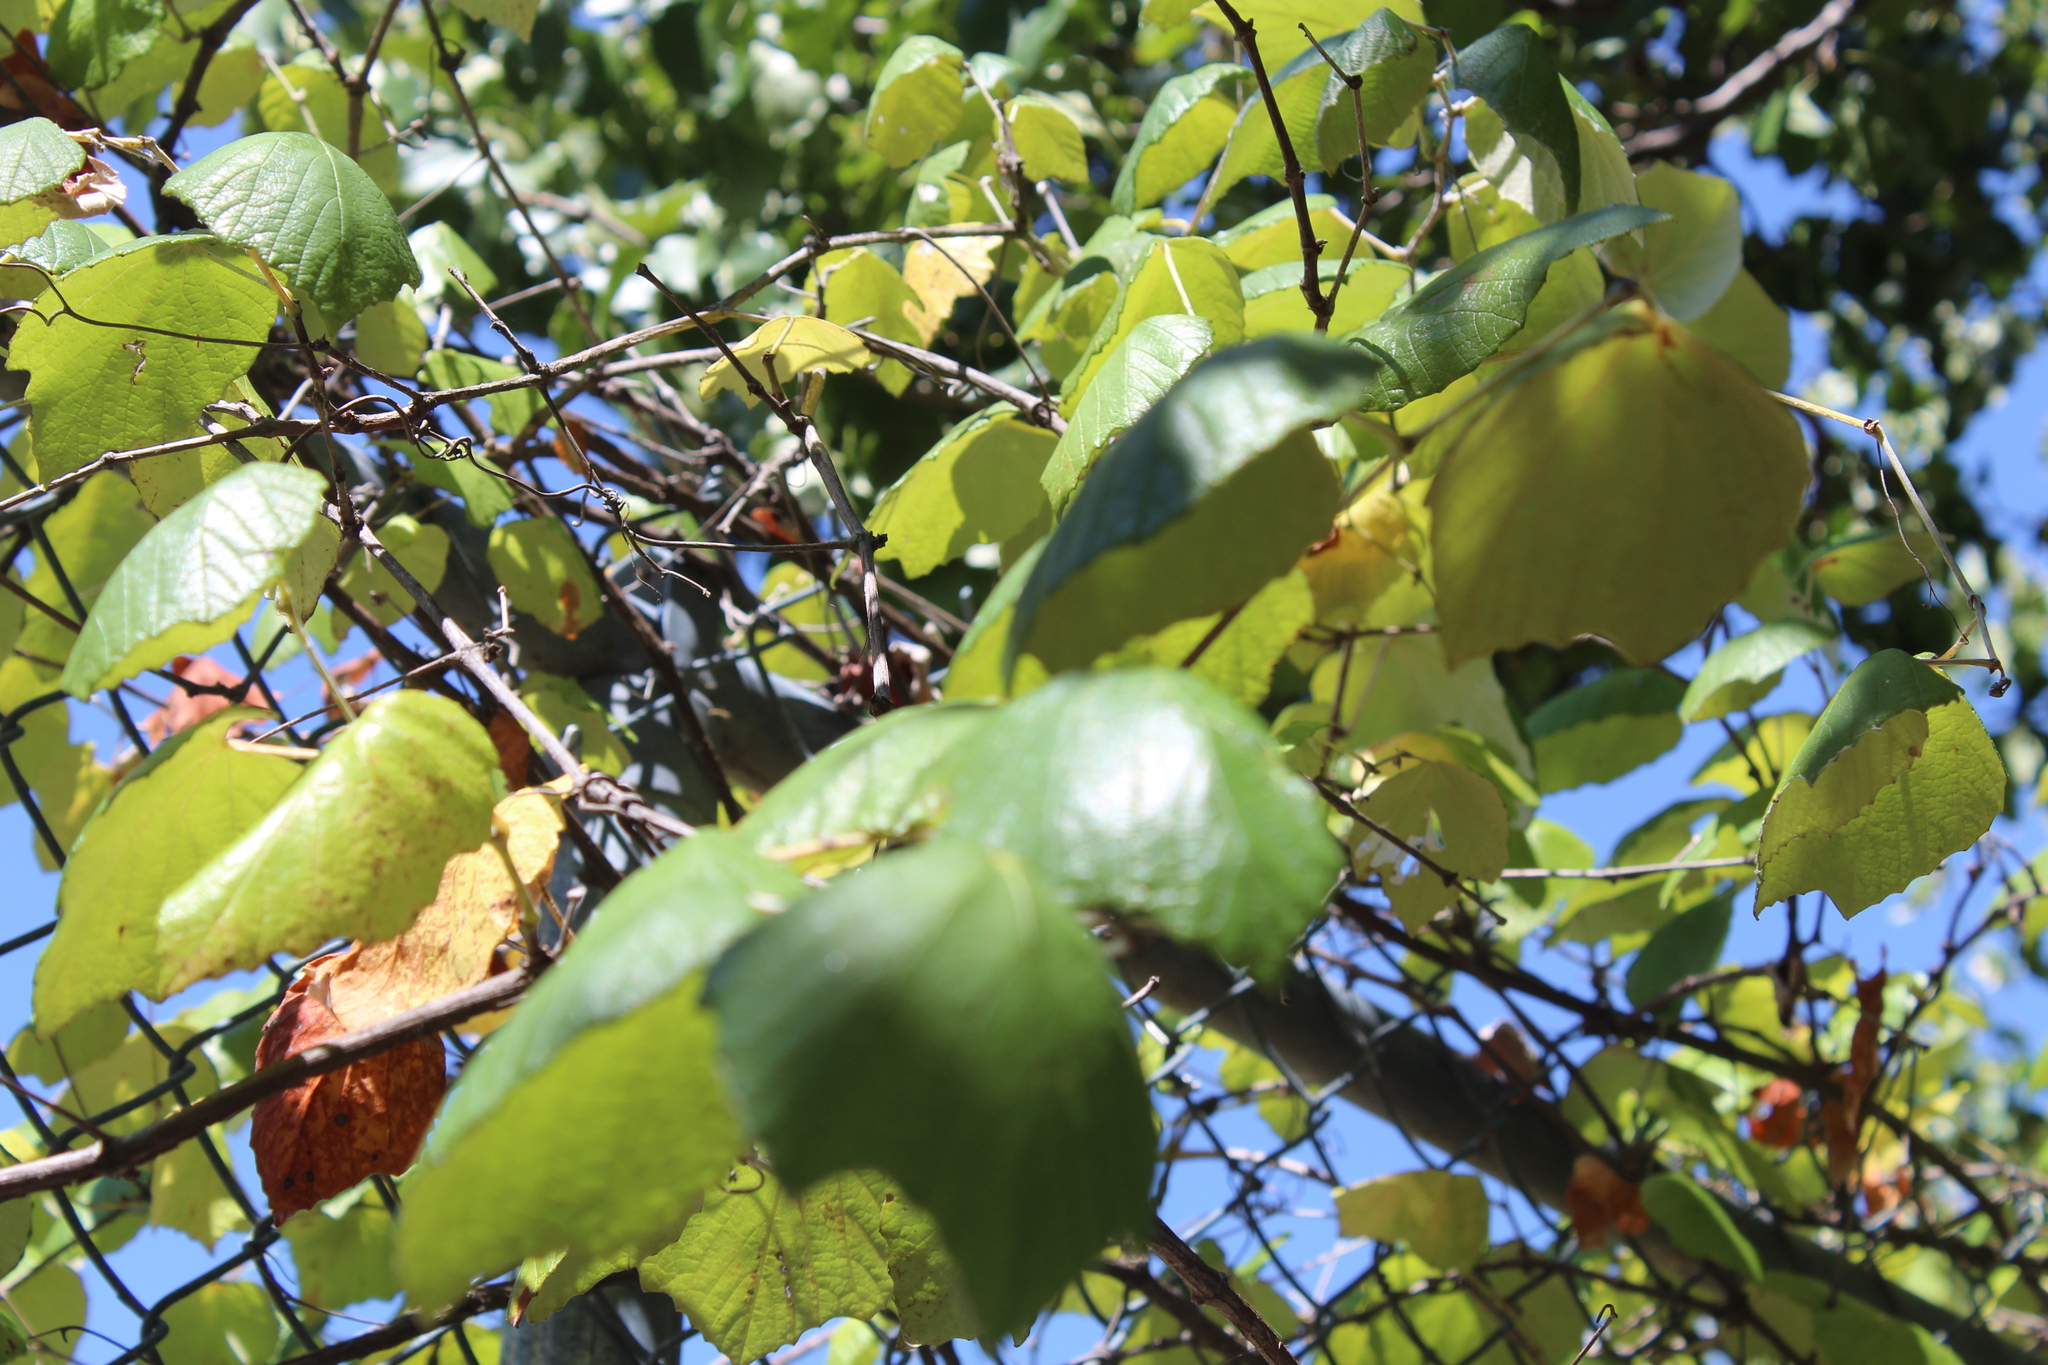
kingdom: Plantae
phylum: Tracheophyta
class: Magnoliopsida
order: Vitales
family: Vitaceae
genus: Vitis
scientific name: Vitis mustangensis
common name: Mustang grape
